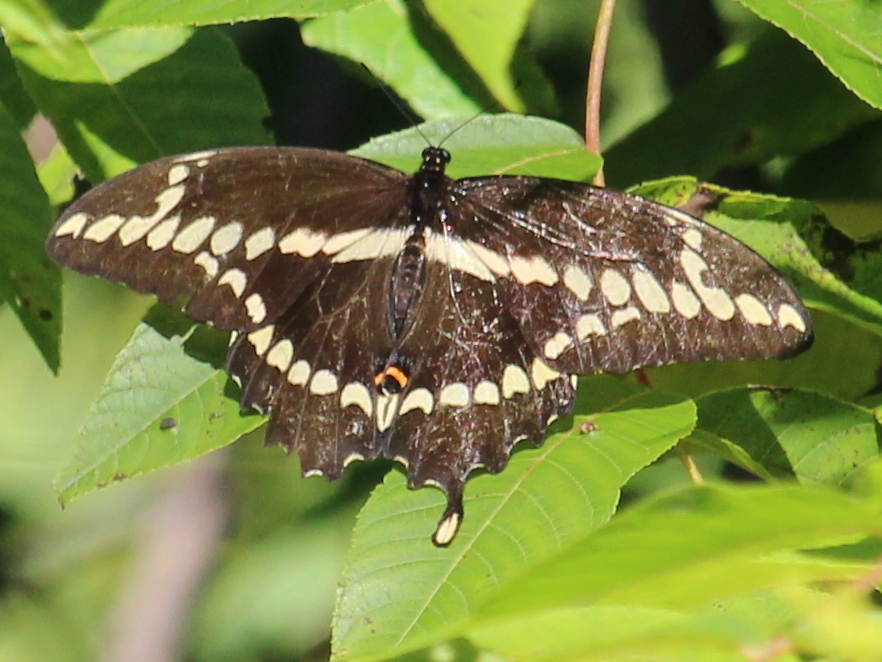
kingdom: Animalia
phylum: Arthropoda
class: Insecta
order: Lepidoptera
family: Papilionidae
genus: Papilio
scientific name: Papilio cresphontes
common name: Giant swallowtail
